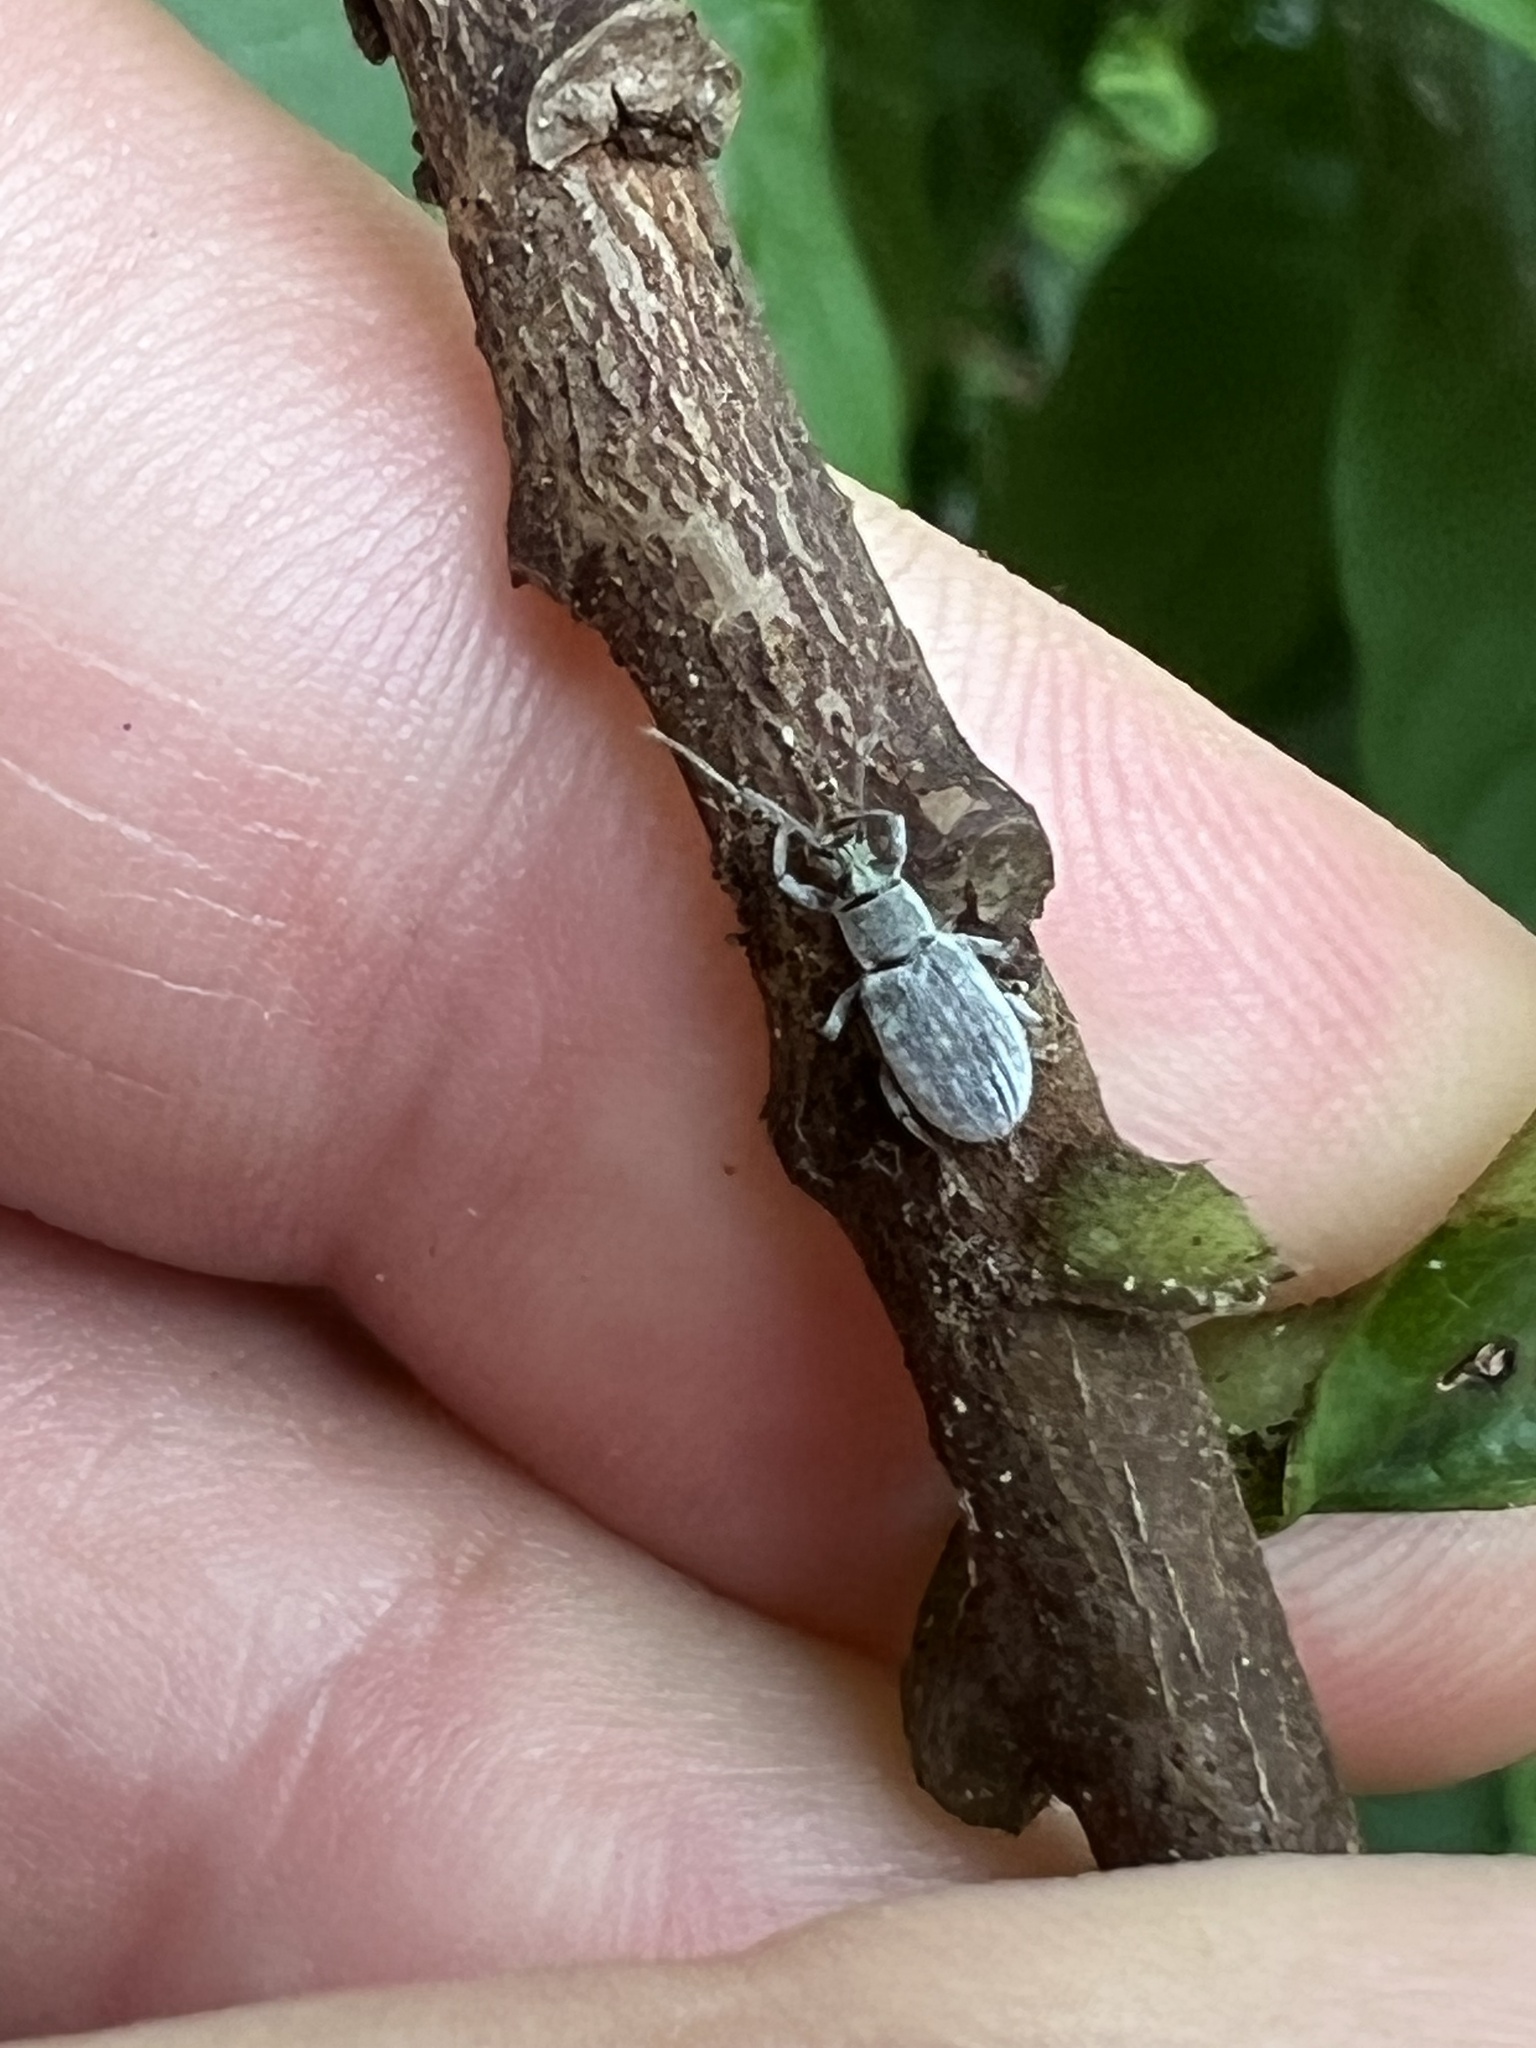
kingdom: Animalia
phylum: Arthropoda
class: Insecta
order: Coleoptera
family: Curculionidae
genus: Cyrtepistomus
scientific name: Cyrtepistomus castaneus
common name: Weevil
